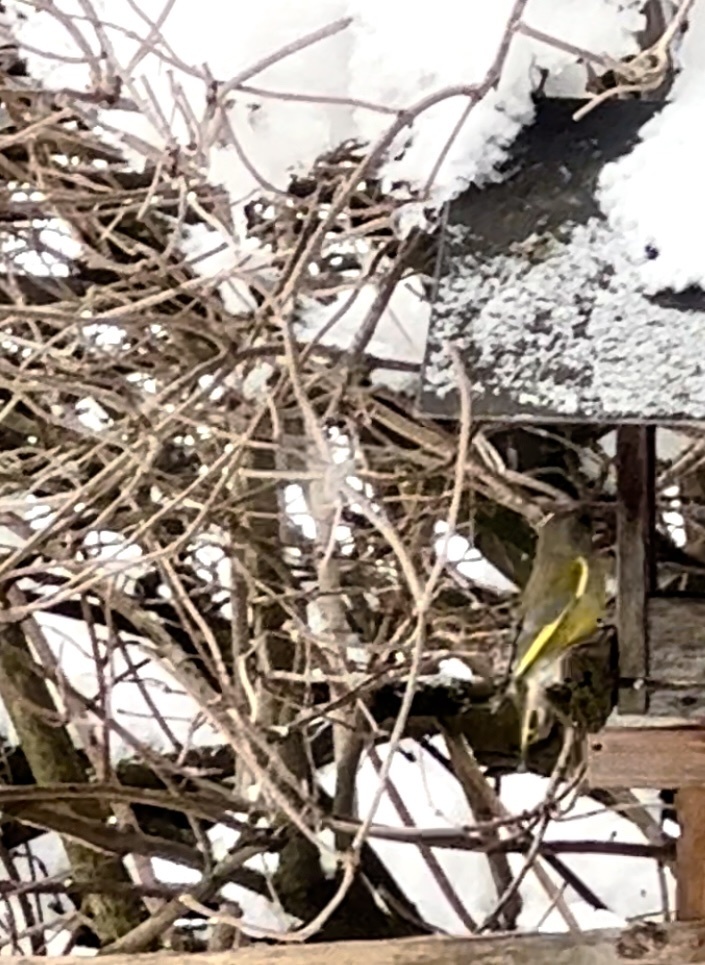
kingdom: Plantae
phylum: Tracheophyta
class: Liliopsida
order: Poales
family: Poaceae
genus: Chloris
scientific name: Chloris chloris
